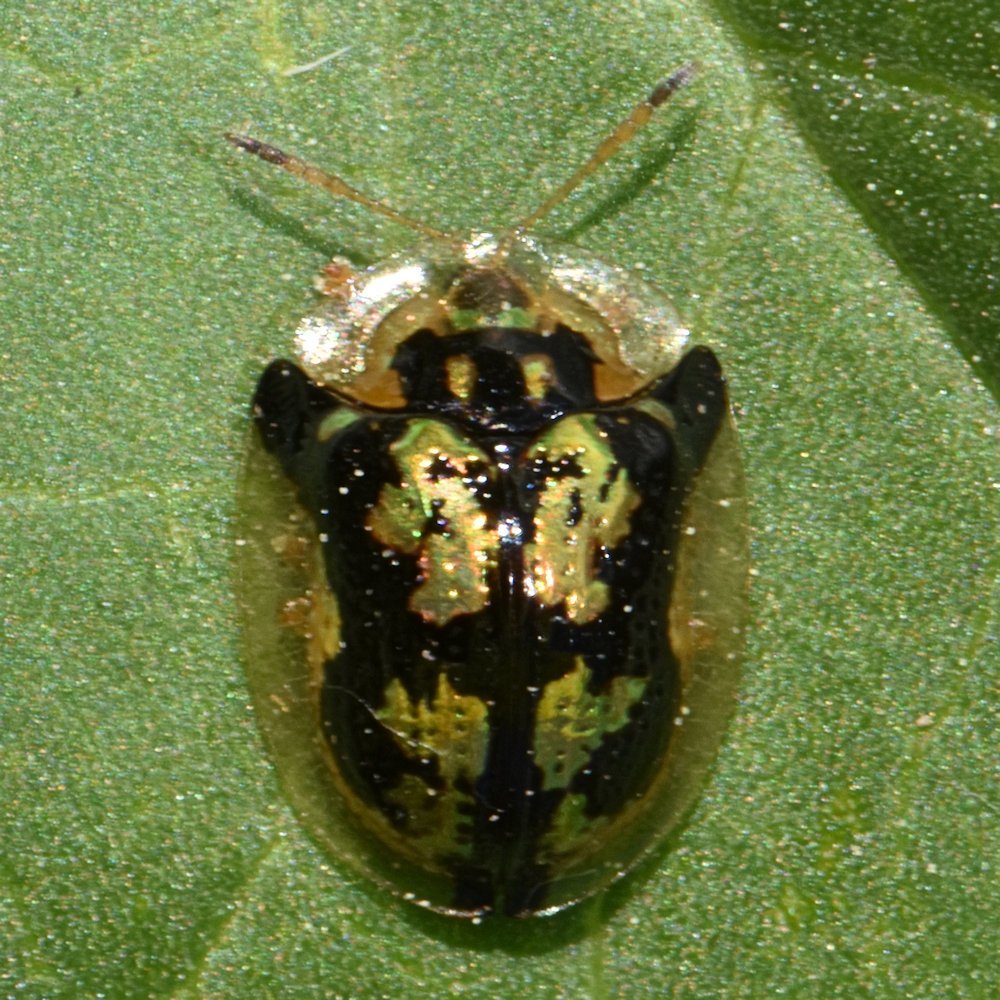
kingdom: Animalia
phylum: Arthropoda
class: Insecta
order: Coleoptera
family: Chrysomelidae
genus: Deloyala
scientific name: Deloyala guttata
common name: Mottled tortoise beetle
